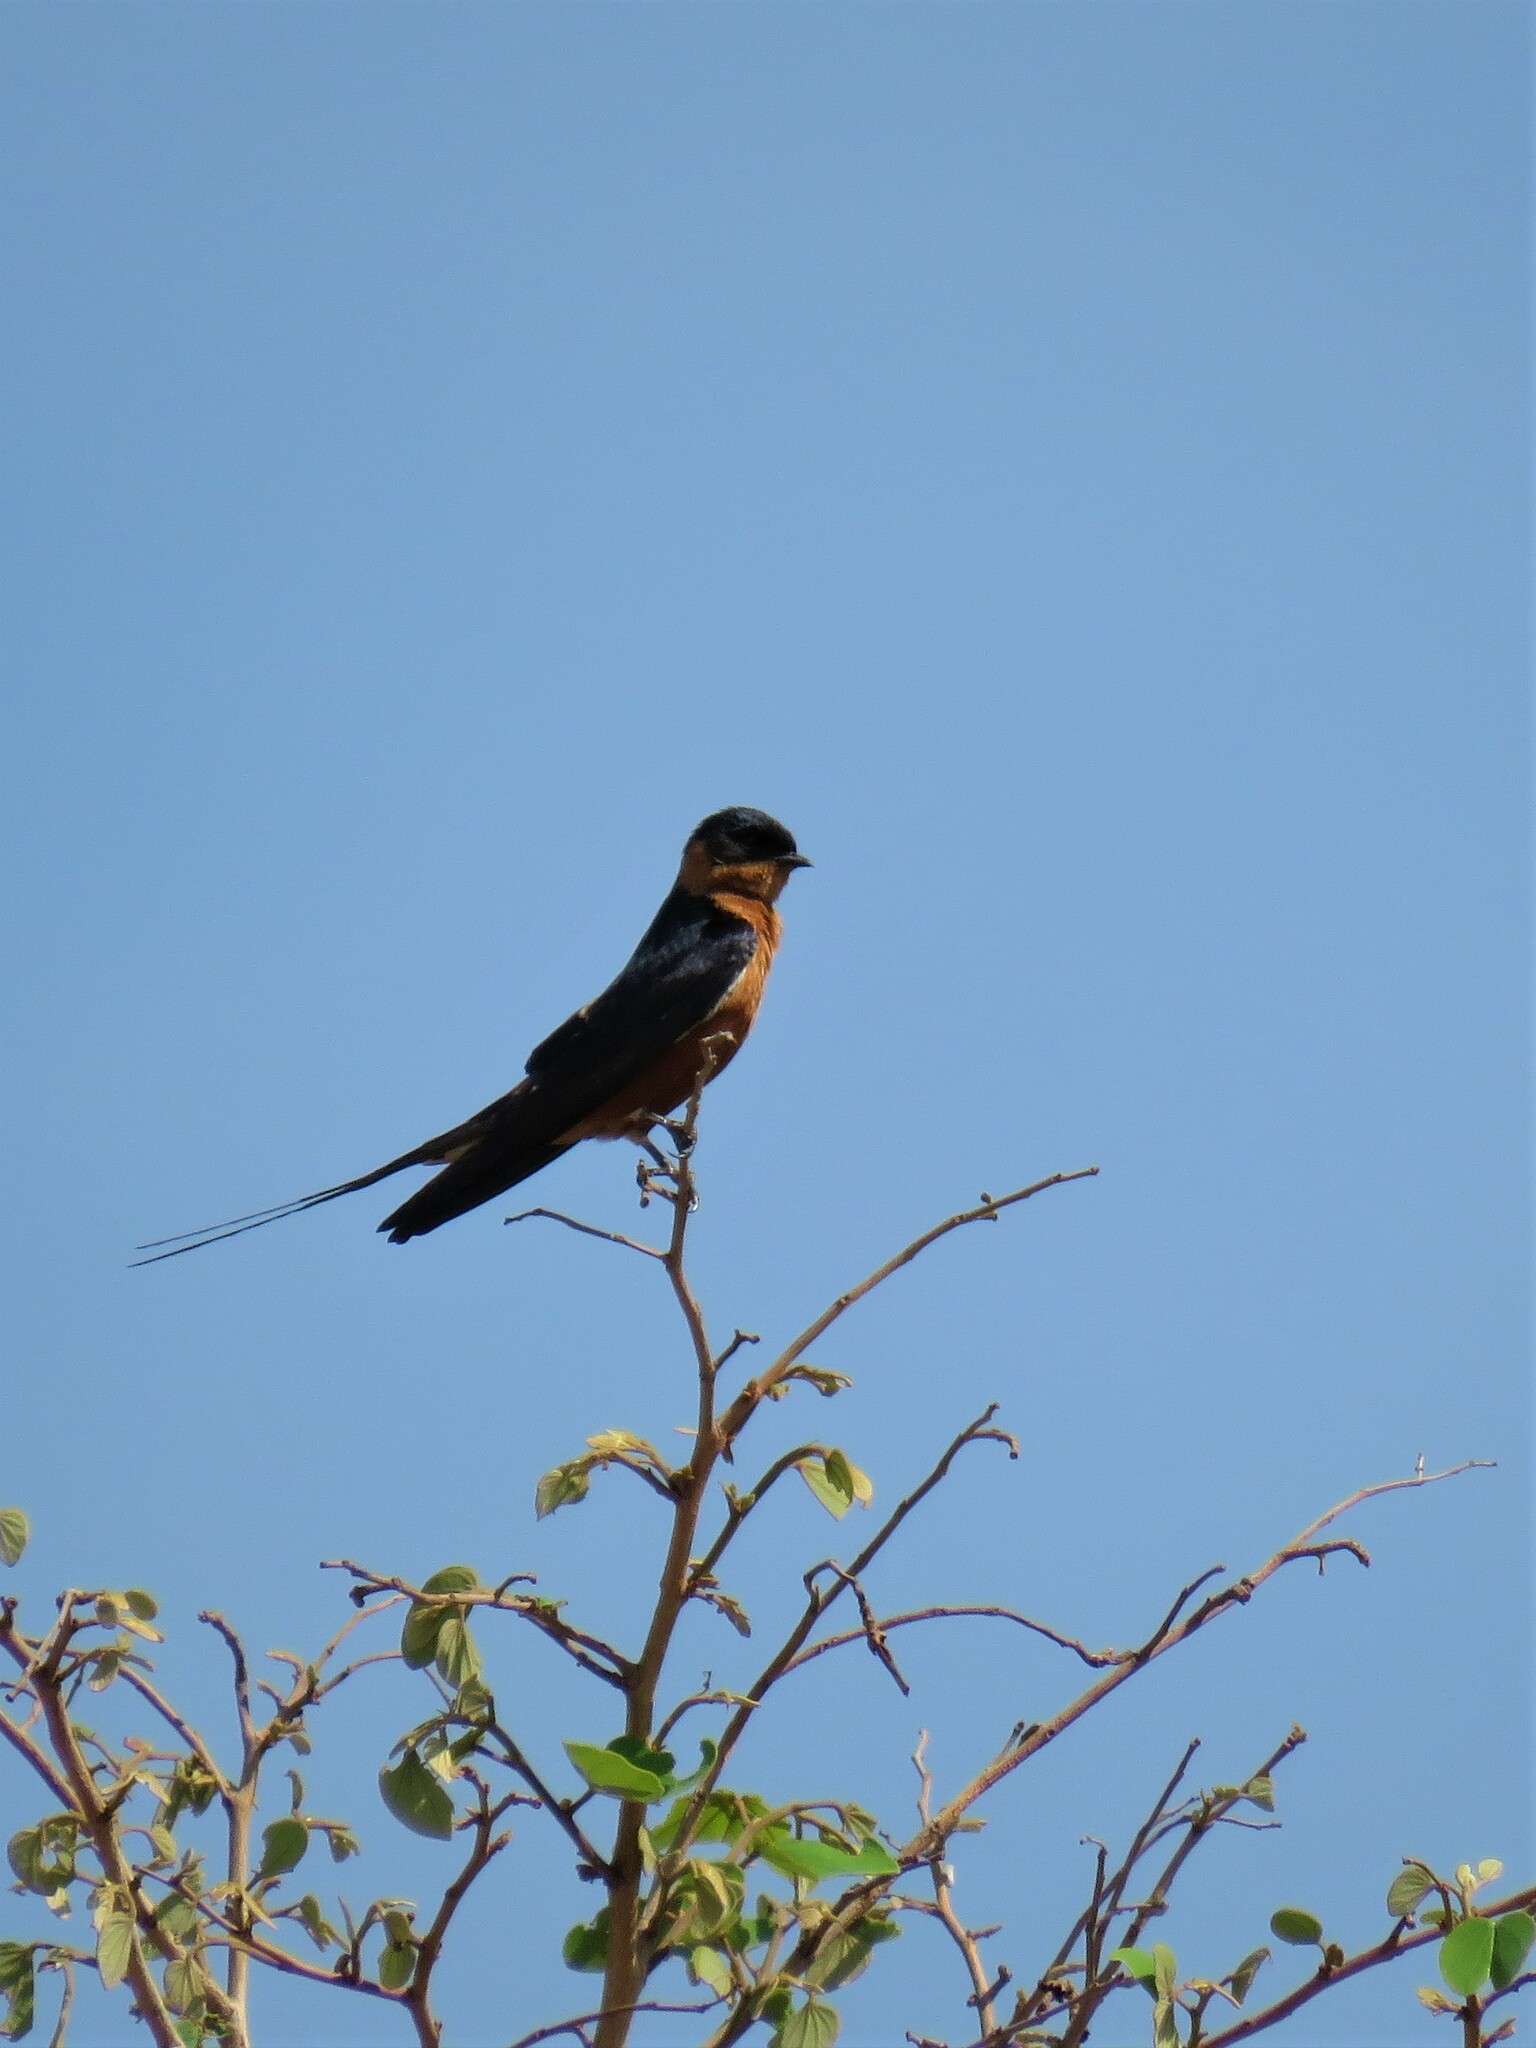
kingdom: Animalia
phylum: Chordata
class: Aves
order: Passeriformes
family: Hirundinidae
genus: Cecropis
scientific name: Cecropis semirufa
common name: Red-breasted swallow
